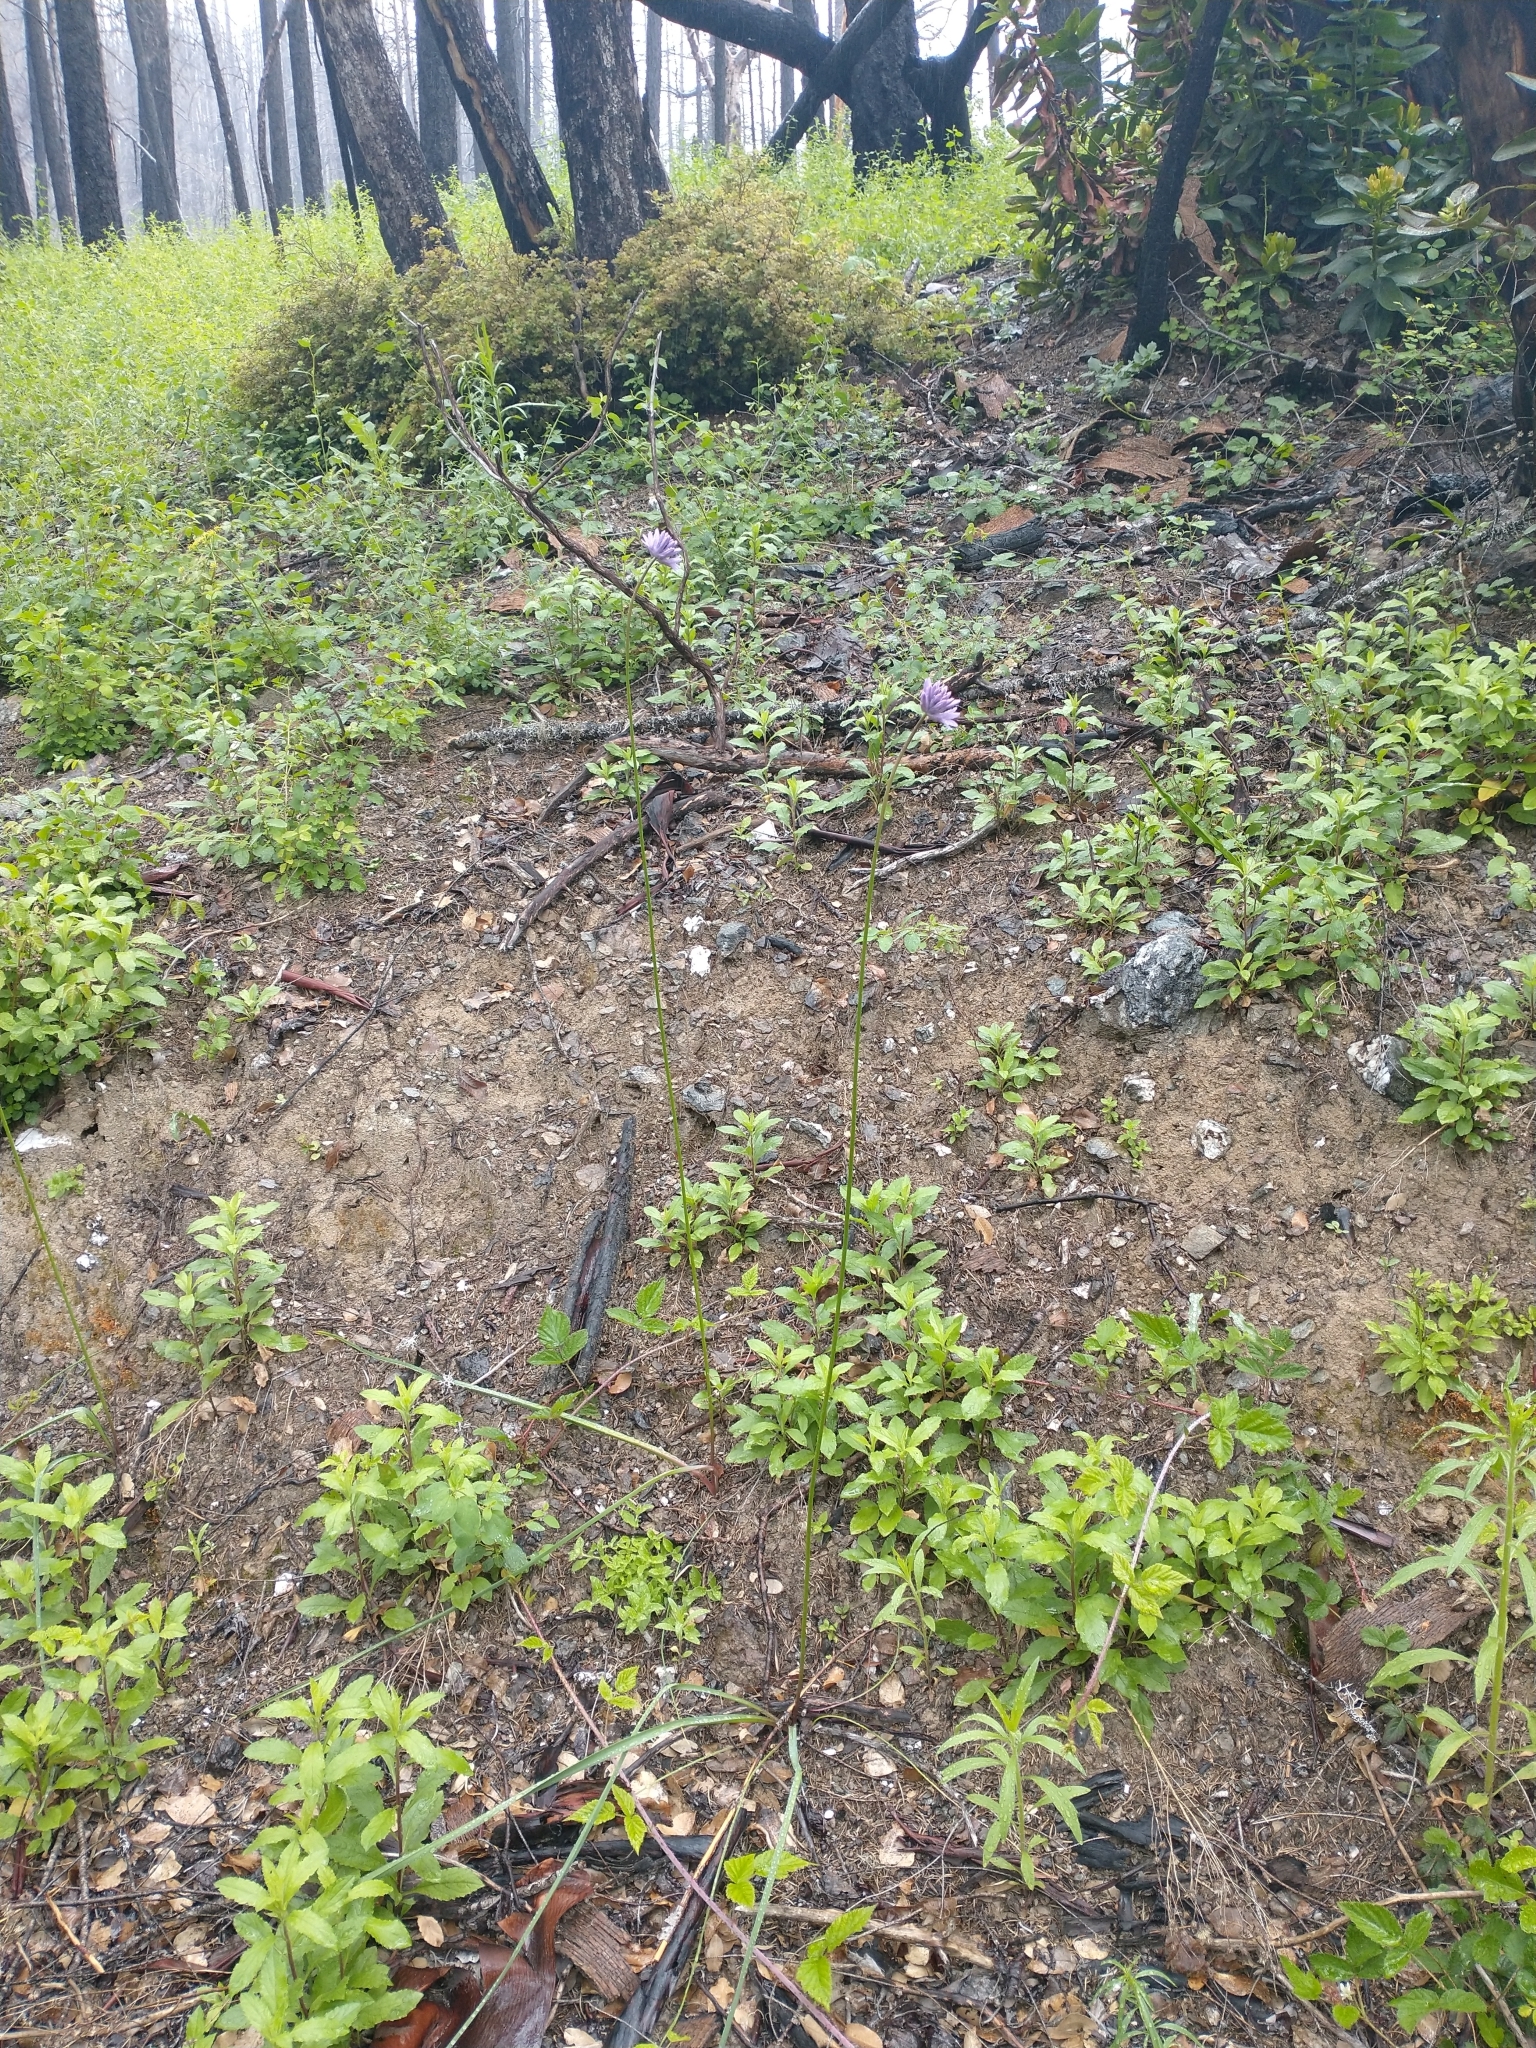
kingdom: Plantae
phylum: Tracheophyta
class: Liliopsida
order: Asparagales
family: Asparagaceae
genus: Dichelostemma
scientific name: Dichelostemma congestum
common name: Fork-tooth ookow
